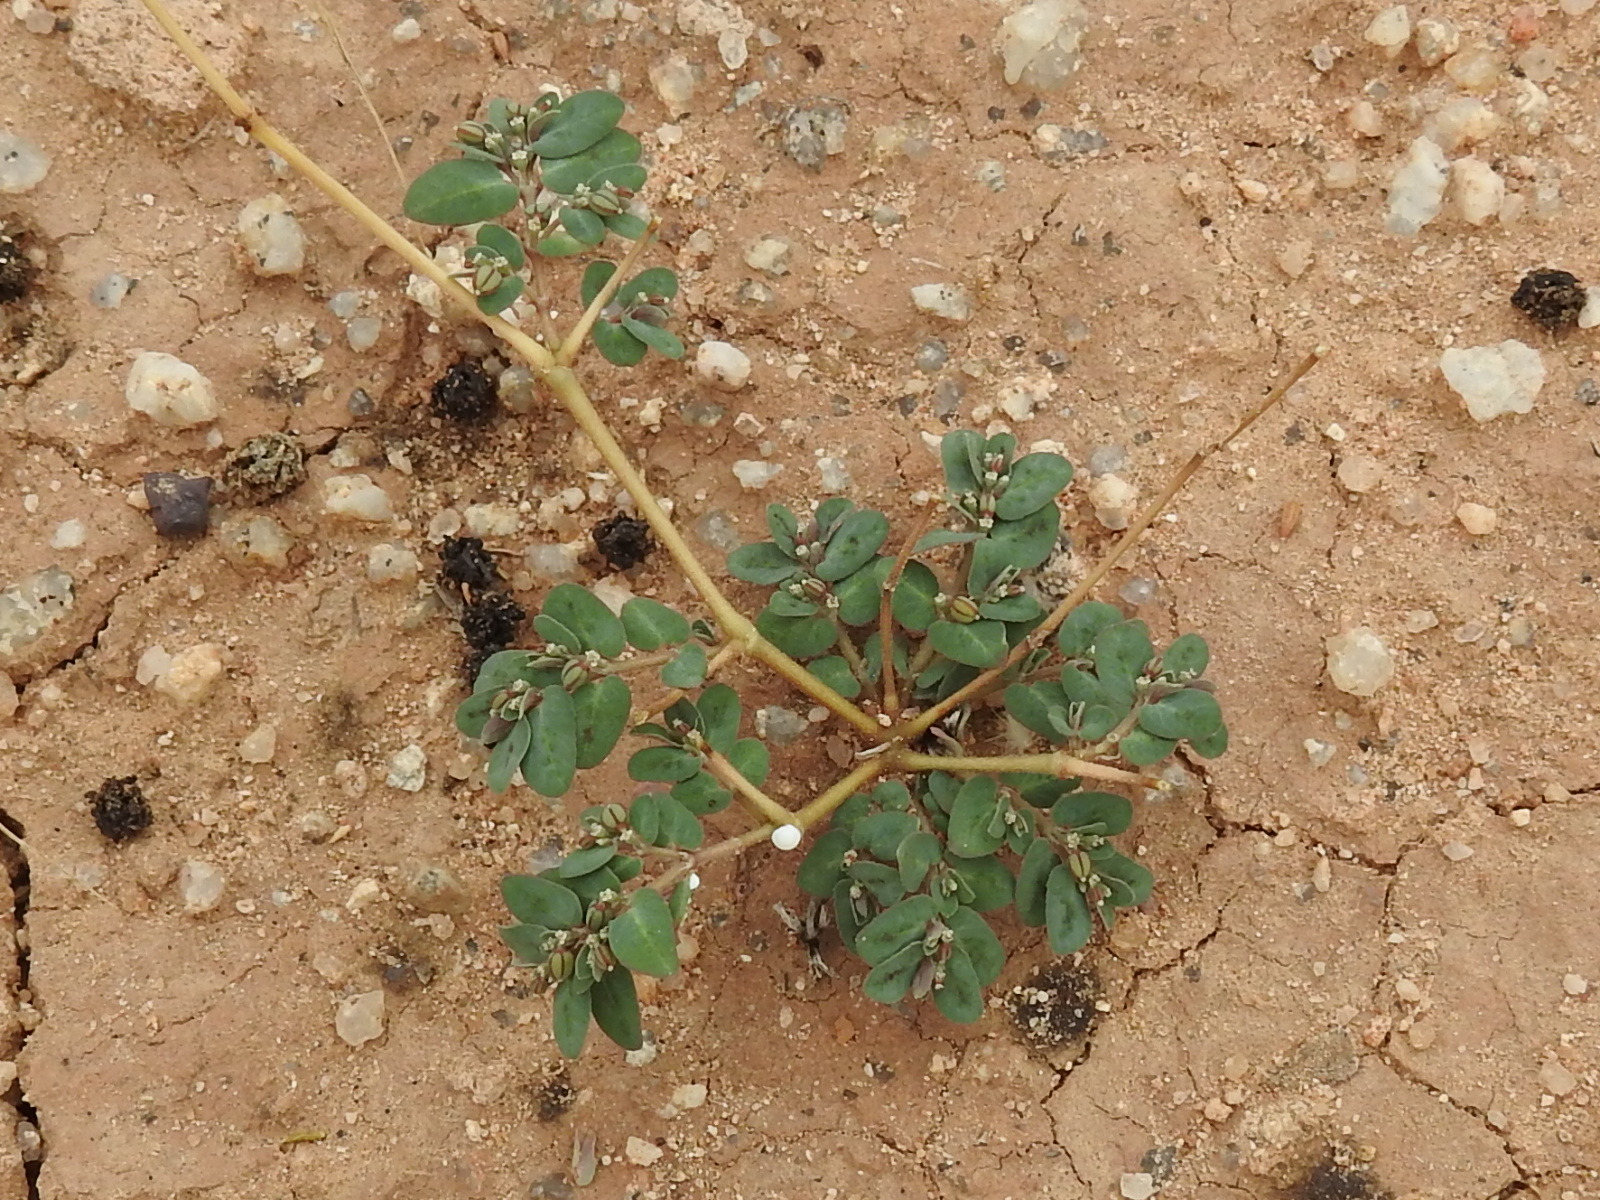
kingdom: Plantae
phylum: Tracheophyta
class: Magnoliopsida
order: Malpighiales
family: Euphorbiaceae
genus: Euphorbia
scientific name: Euphorbia abramsiana
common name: Abram's spurge
